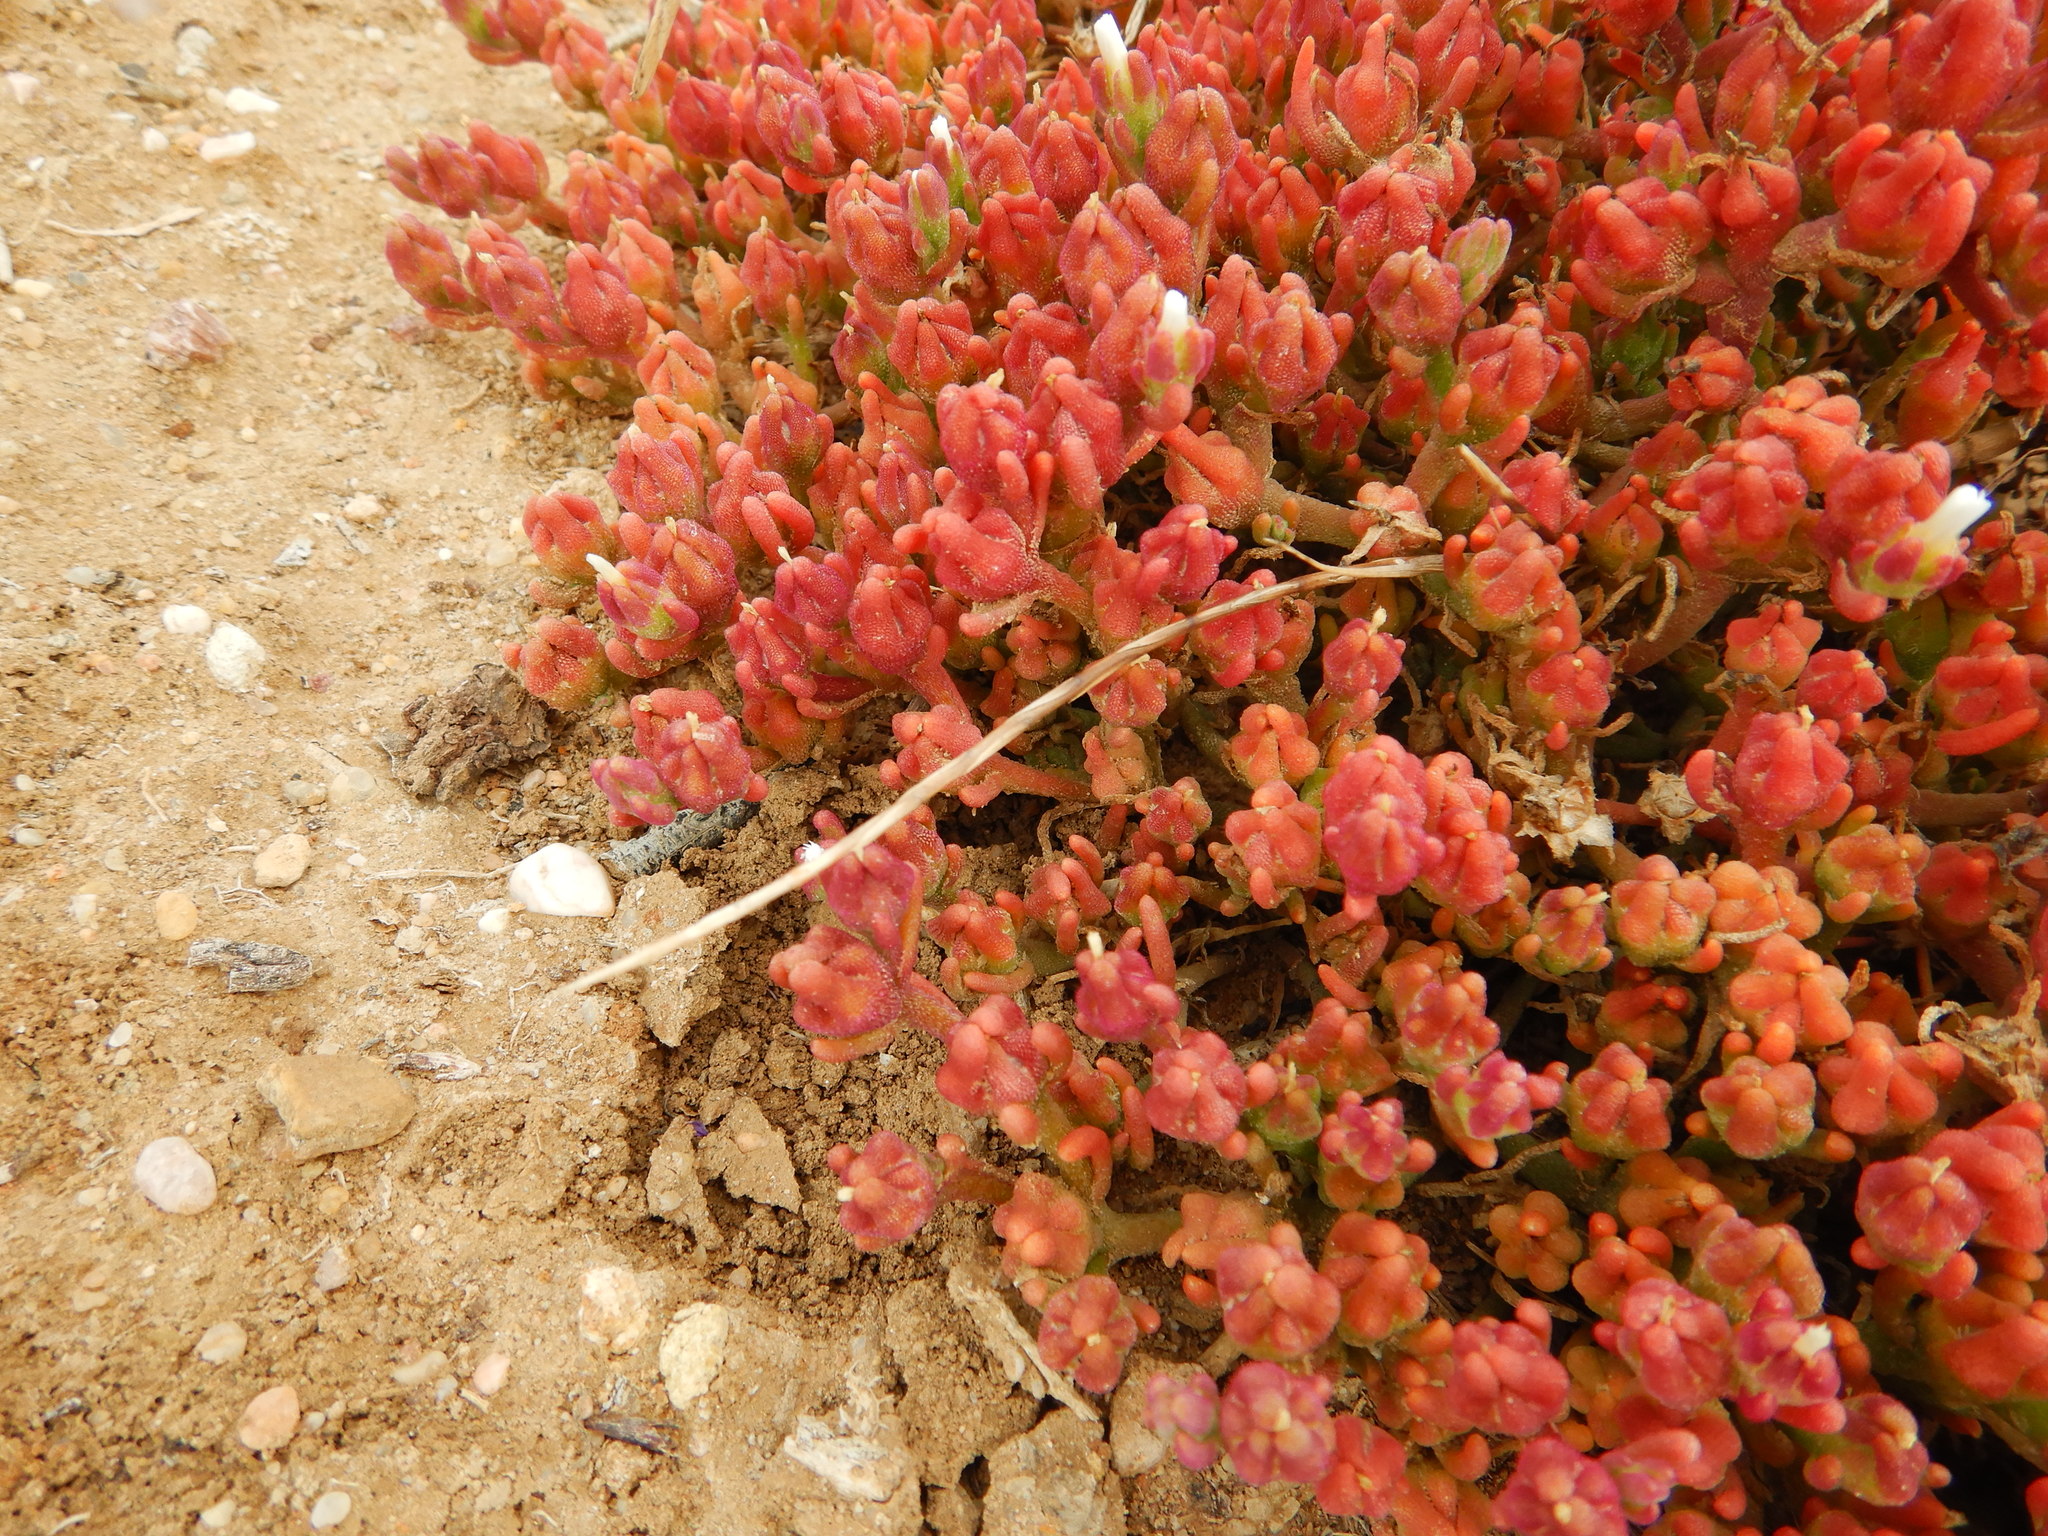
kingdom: Plantae
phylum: Tracheophyta
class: Magnoliopsida
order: Caryophyllales
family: Aizoaceae
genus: Mesembryanthemum
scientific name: Mesembryanthemum nodiflorum
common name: Slenderleaf iceplant
